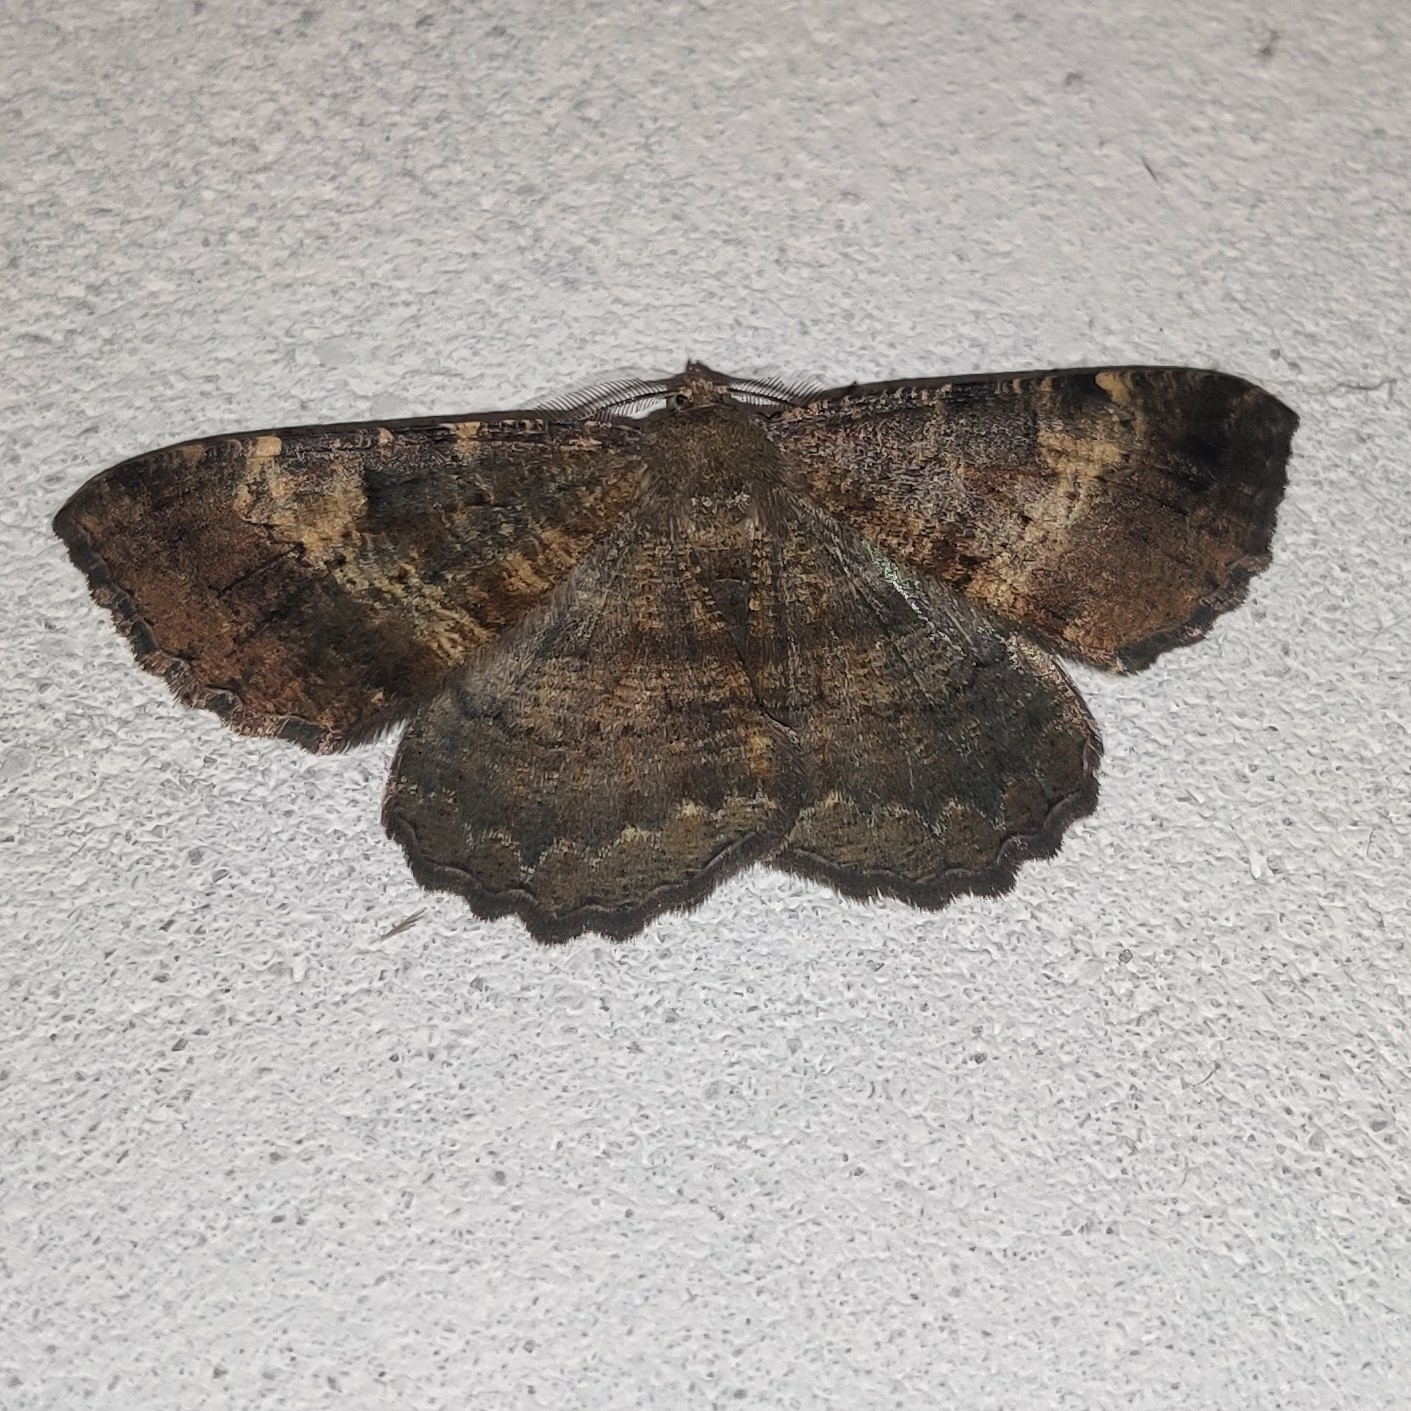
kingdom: Animalia
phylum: Arthropoda
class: Insecta
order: Lepidoptera
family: Geometridae
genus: Ctenognophos
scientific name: Ctenognophos eolaria
